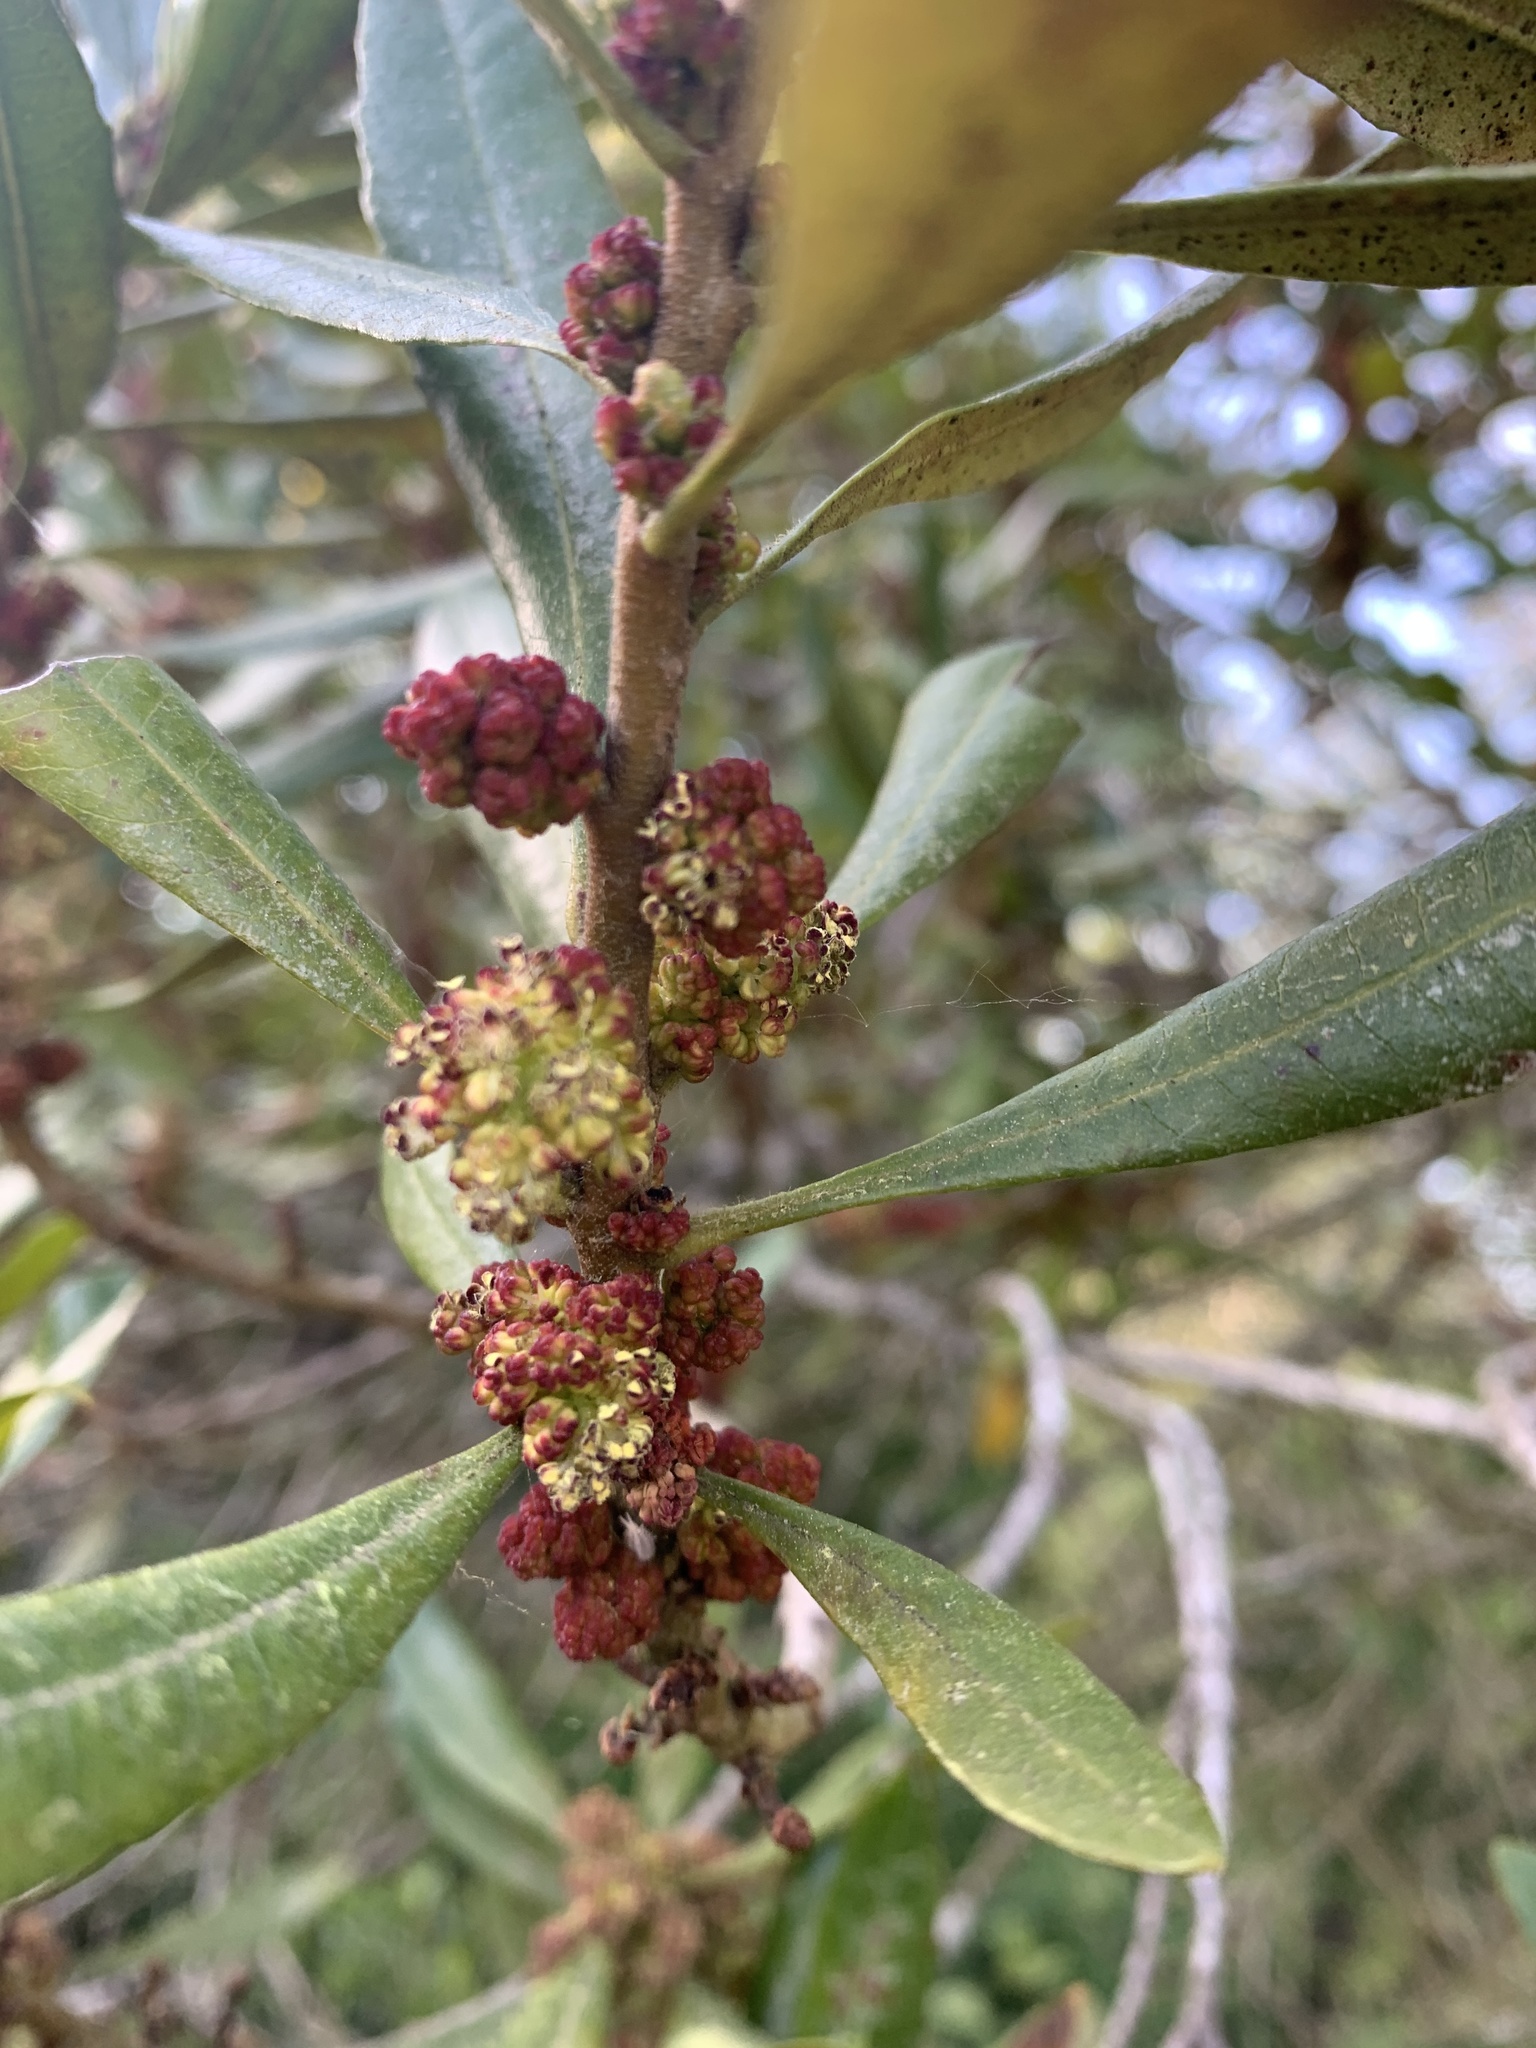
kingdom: Plantae
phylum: Tracheophyta
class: Magnoliopsida
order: Fagales
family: Myricaceae
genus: Morella
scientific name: Morella californica
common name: California wax-myrtle
